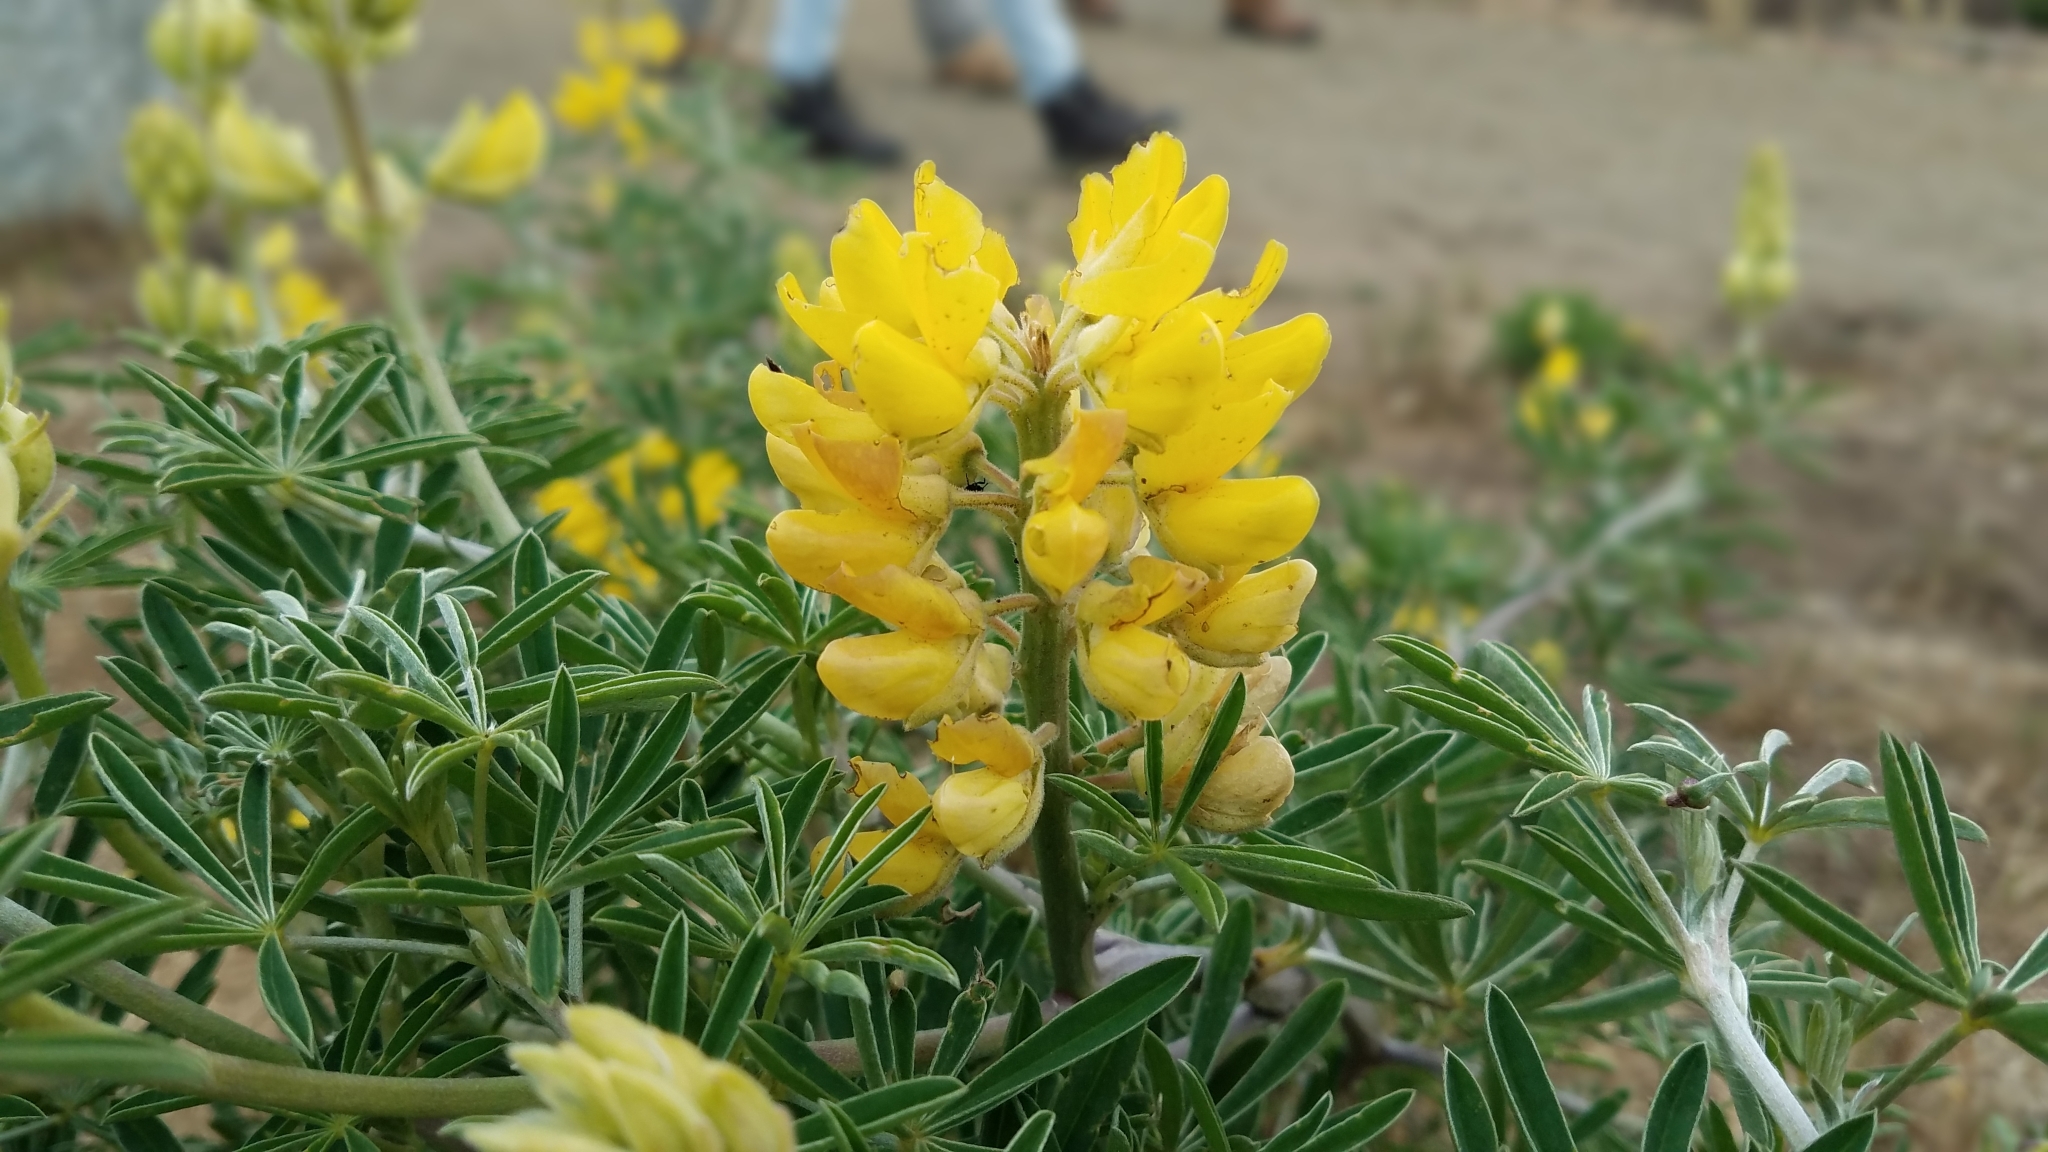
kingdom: Plantae
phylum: Tracheophyta
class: Magnoliopsida
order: Fabales
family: Fabaceae
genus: Lupinus
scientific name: Lupinus arboreus
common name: Yellow bush lupine
